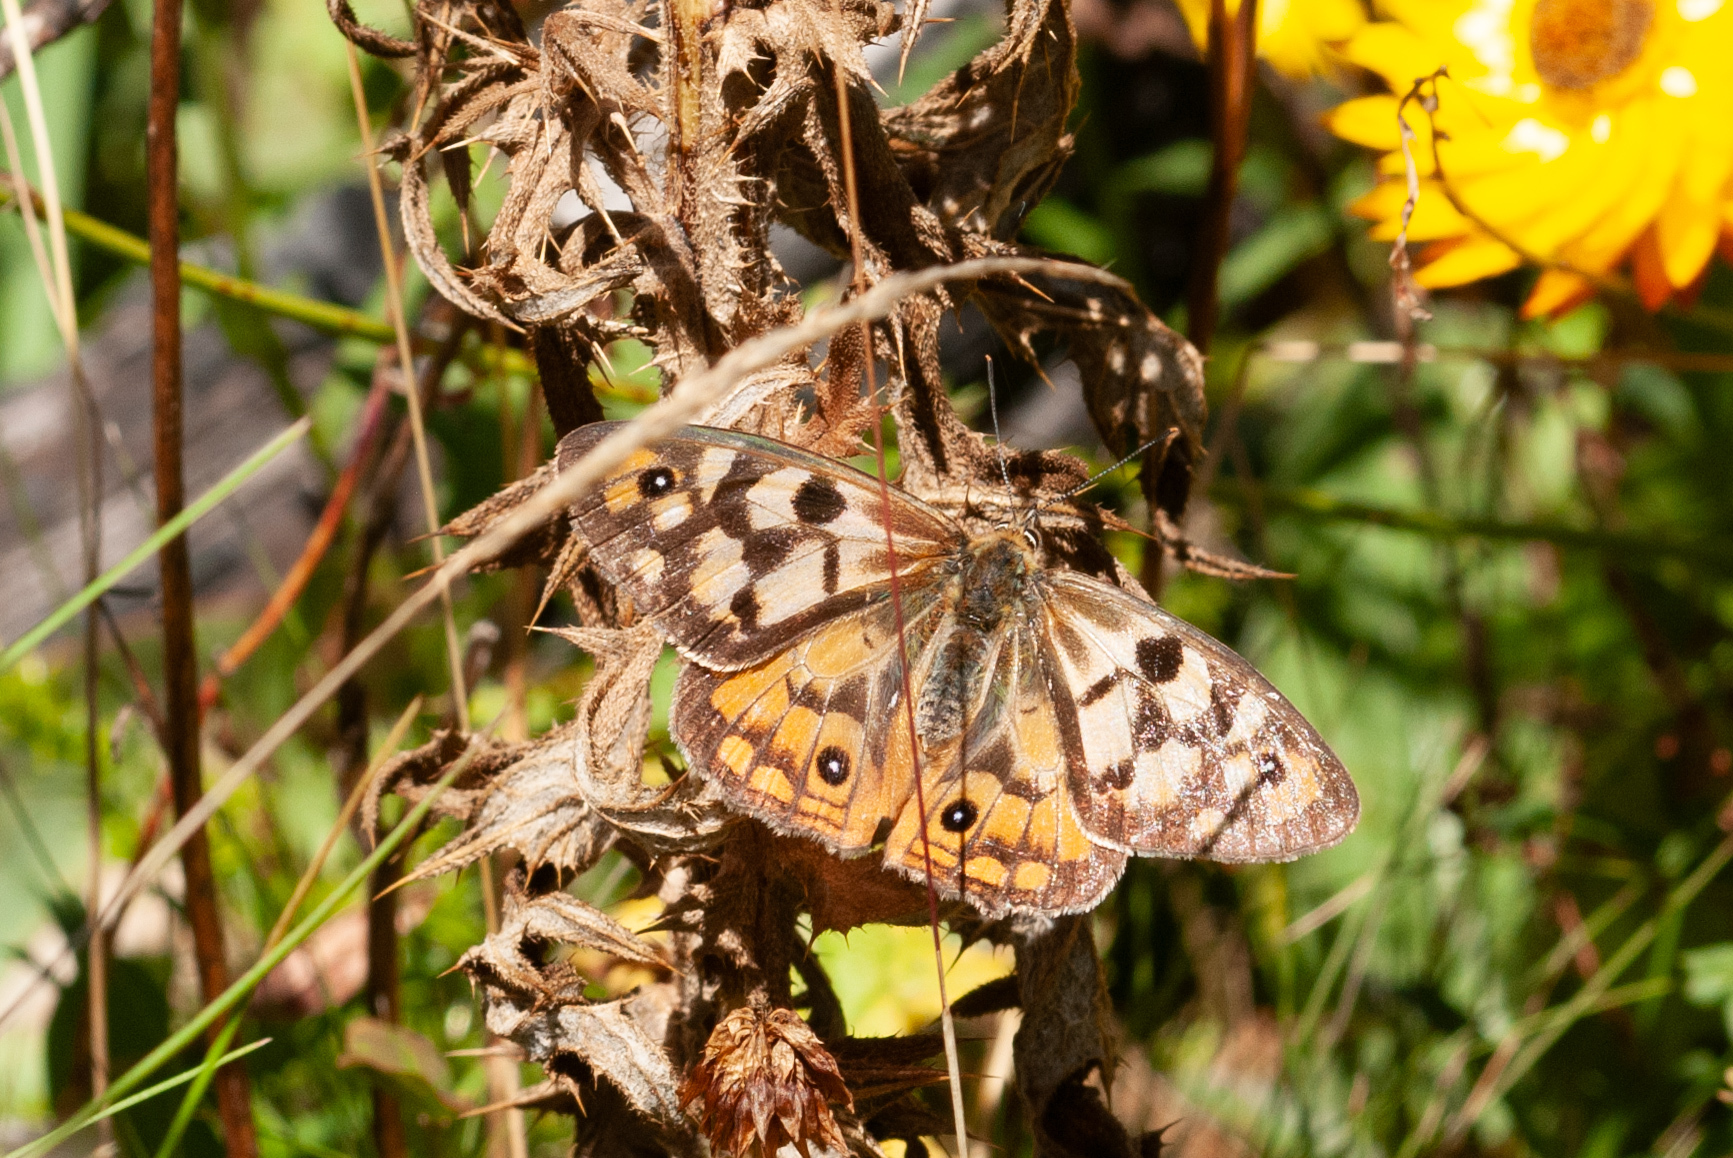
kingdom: Animalia
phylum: Arthropoda
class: Insecta
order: Lepidoptera
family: Nymphalidae
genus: Heteronympha
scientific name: Heteronympha penelope
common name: Shouldered brown
